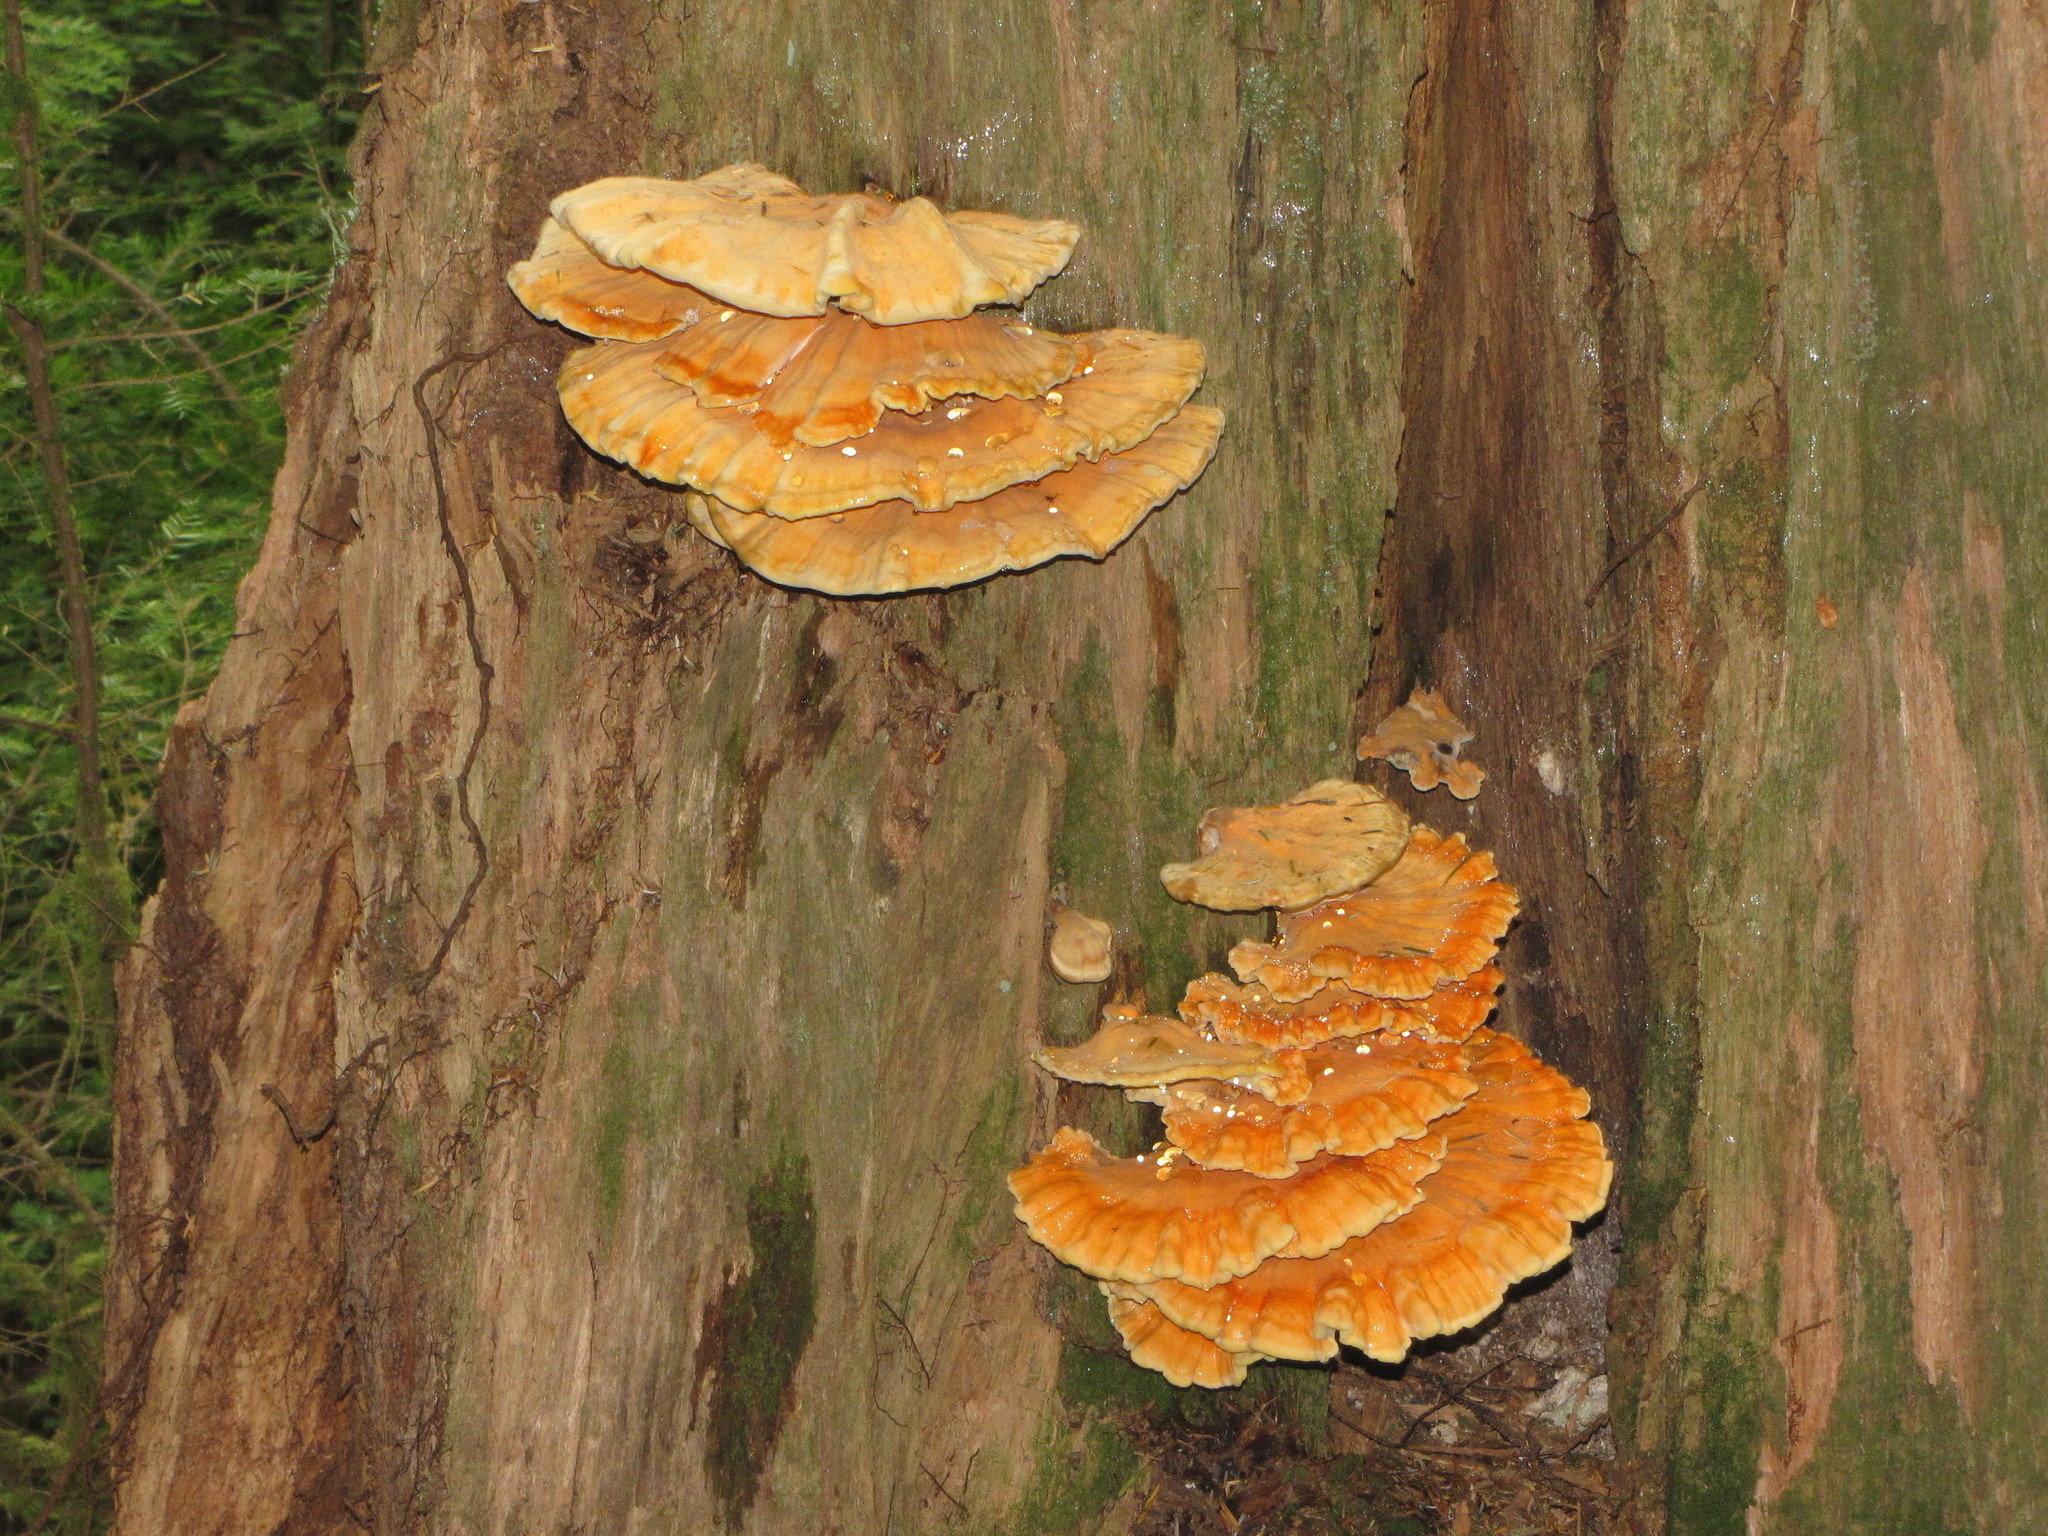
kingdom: Fungi
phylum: Basidiomycota
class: Agaricomycetes
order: Polyporales
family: Laetiporaceae
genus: Laetiporus
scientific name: Laetiporus conifericola
